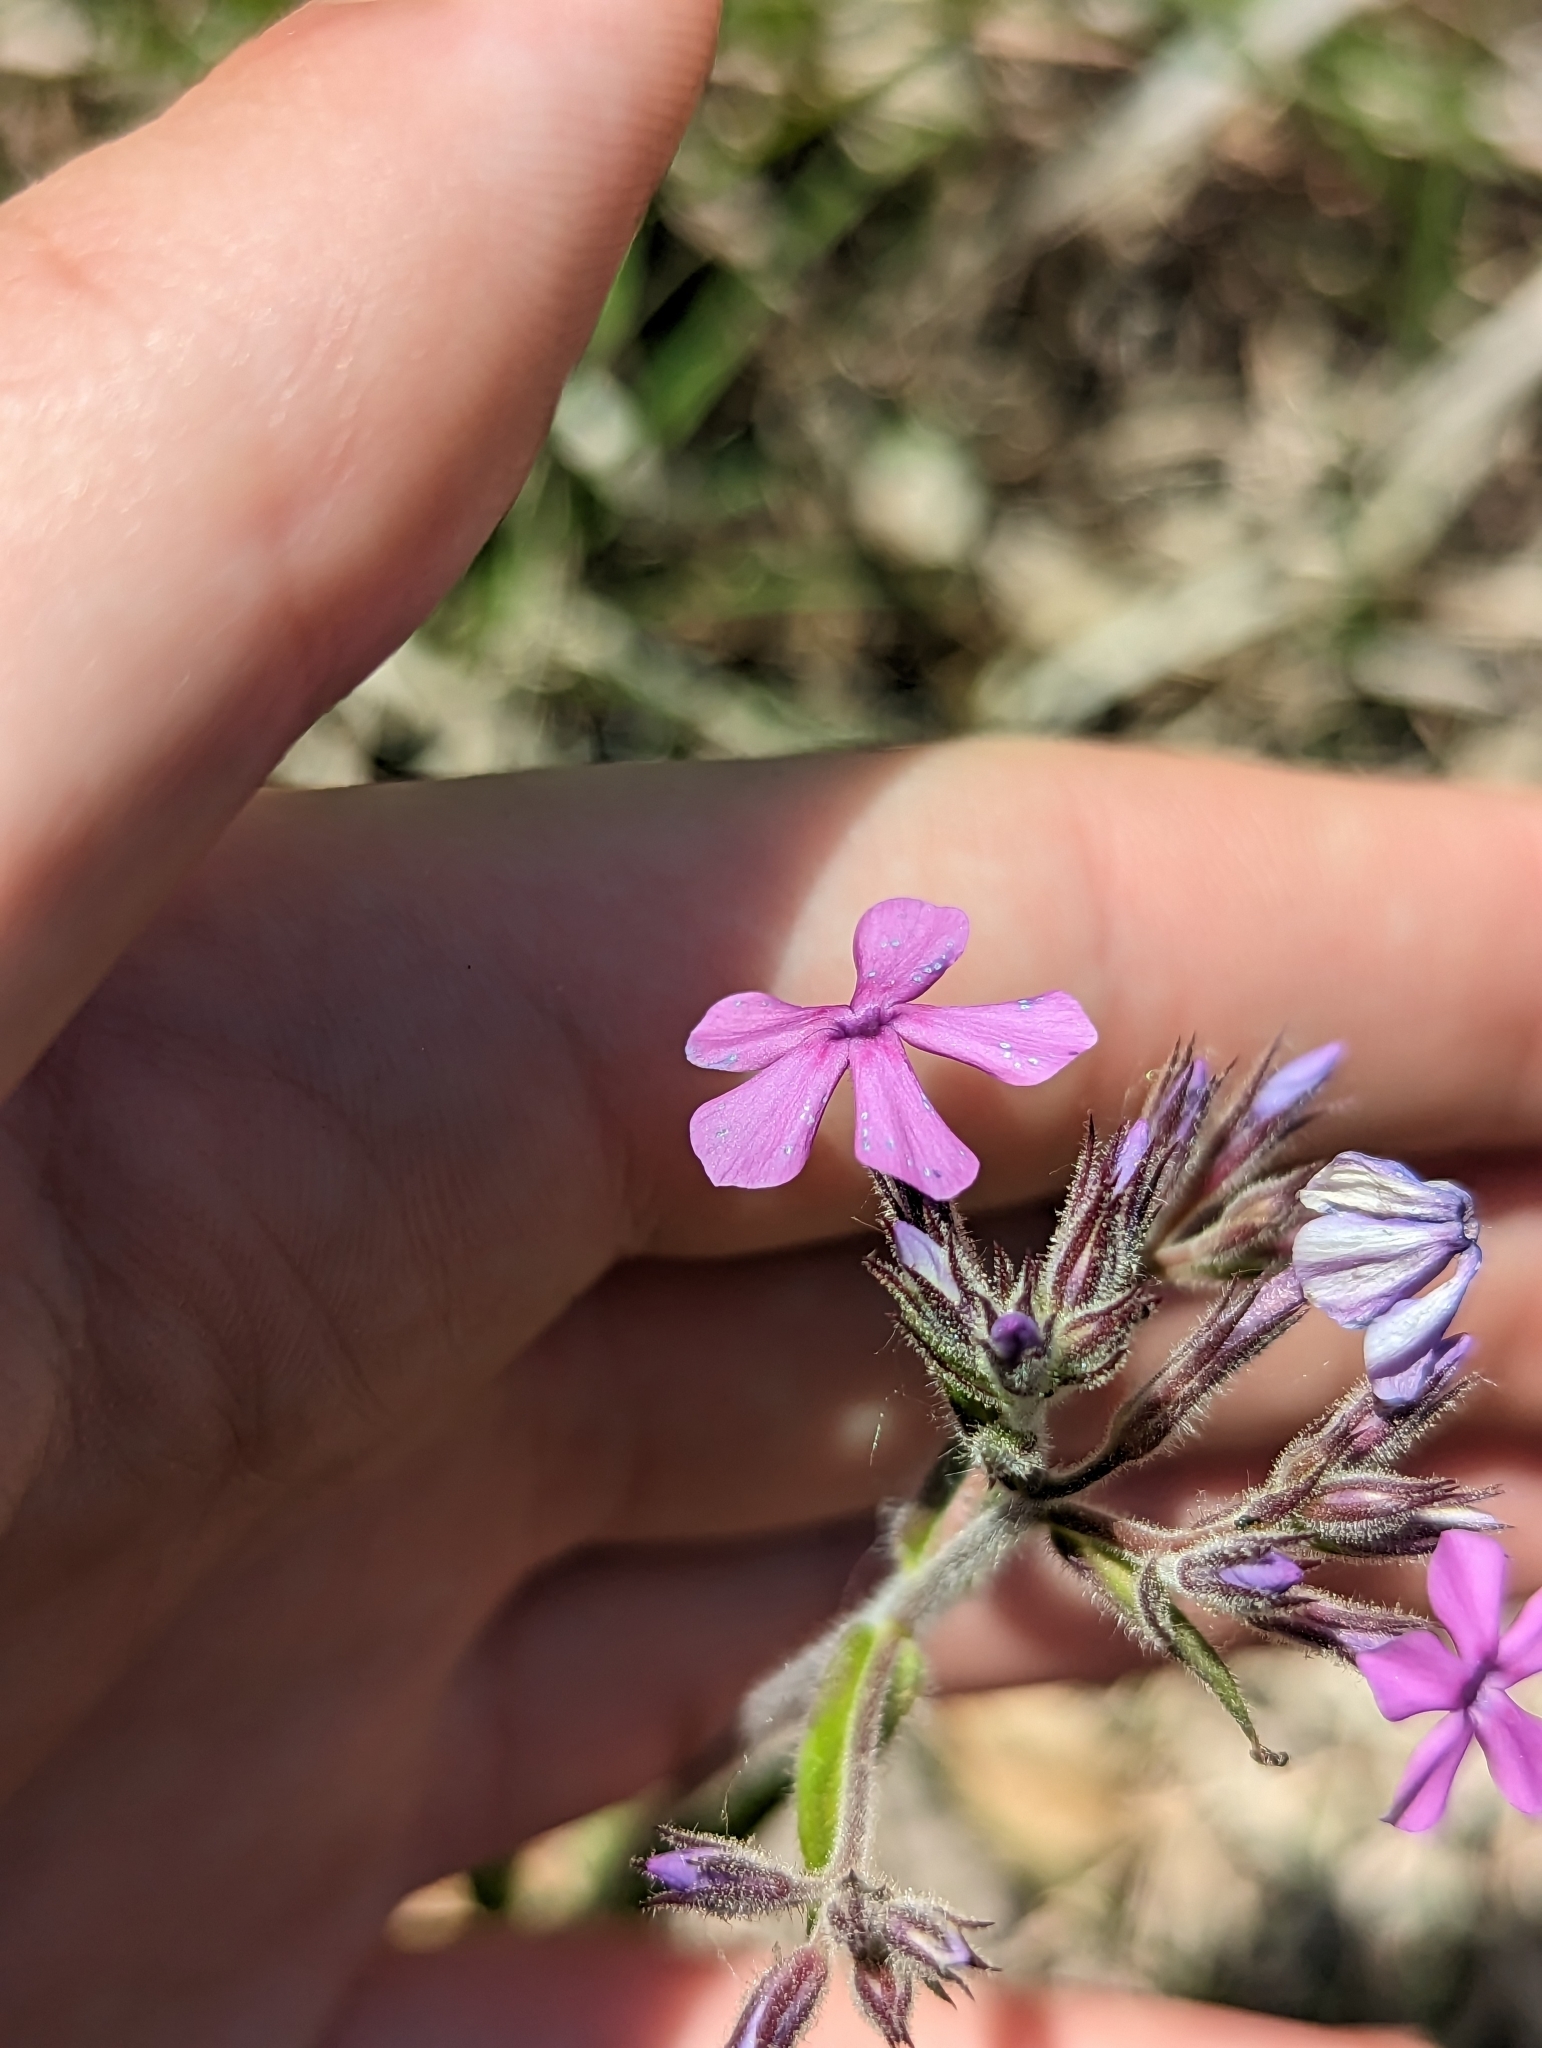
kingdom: Plantae
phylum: Tracheophyta
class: Magnoliopsida
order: Ericales
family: Polemoniaceae
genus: Phlox
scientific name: Phlox pilosa
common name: Prairie phlox
